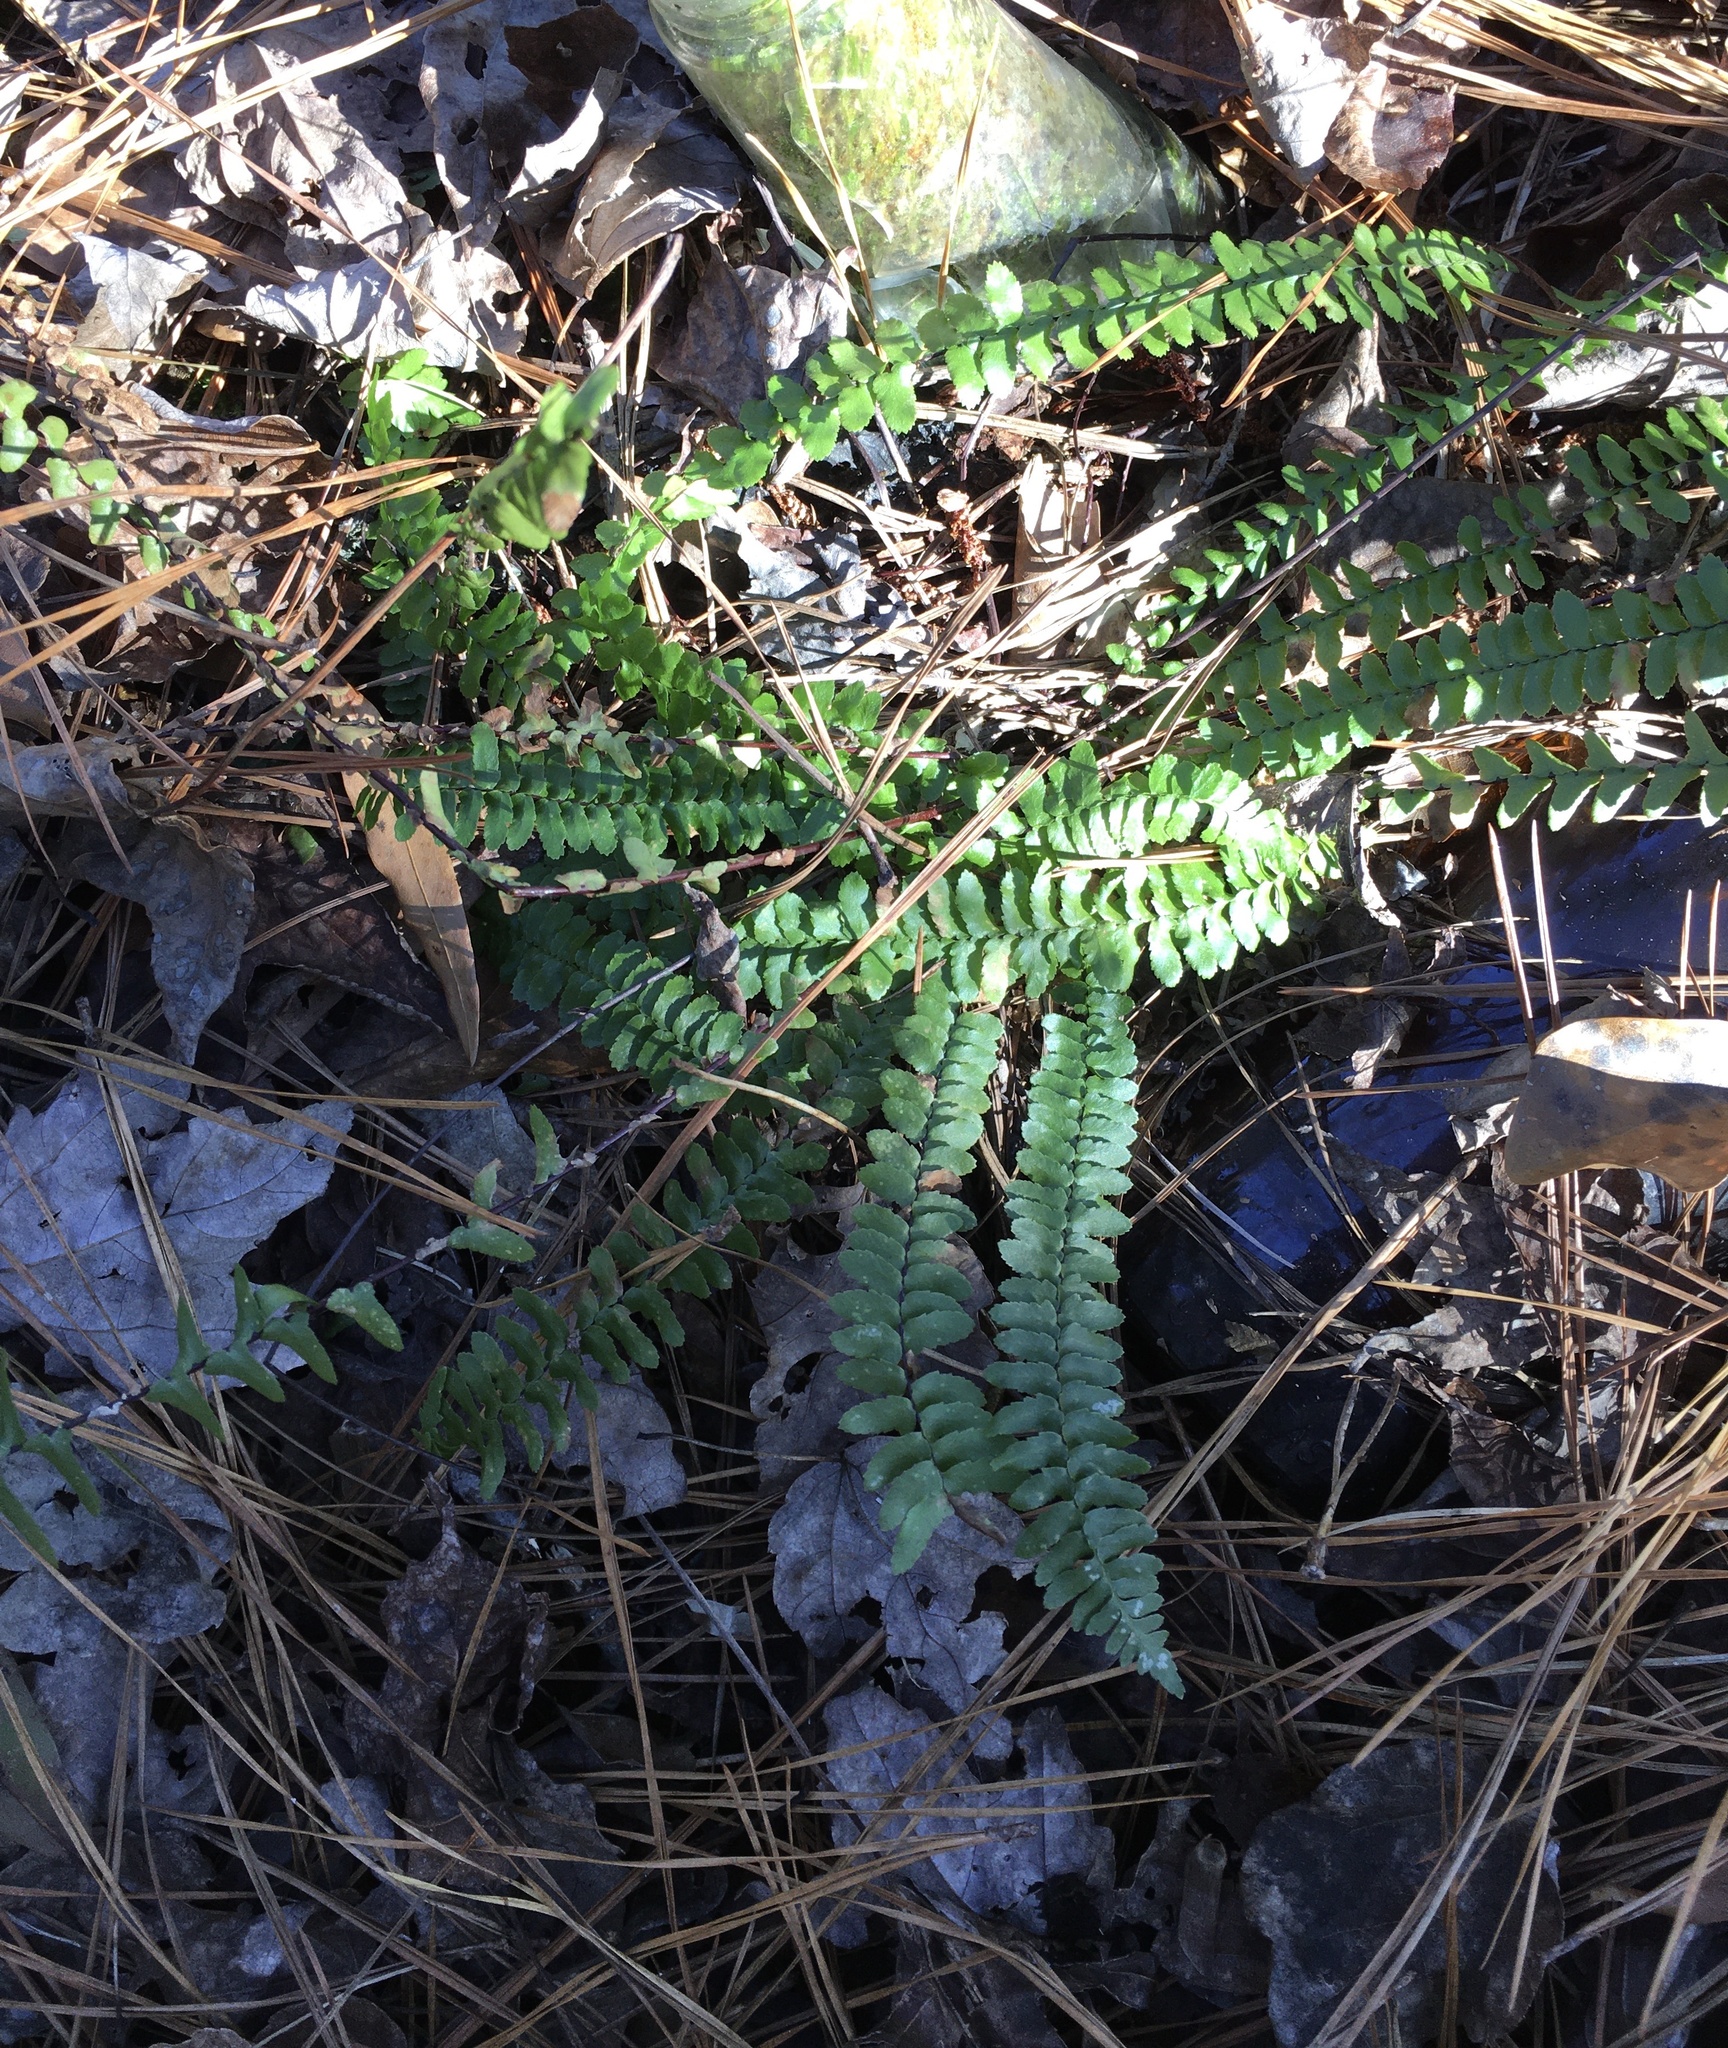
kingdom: Plantae
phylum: Tracheophyta
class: Polypodiopsida
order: Polypodiales
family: Aspleniaceae
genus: Asplenium
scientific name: Asplenium platyneuron
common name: Ebony spleenwort
